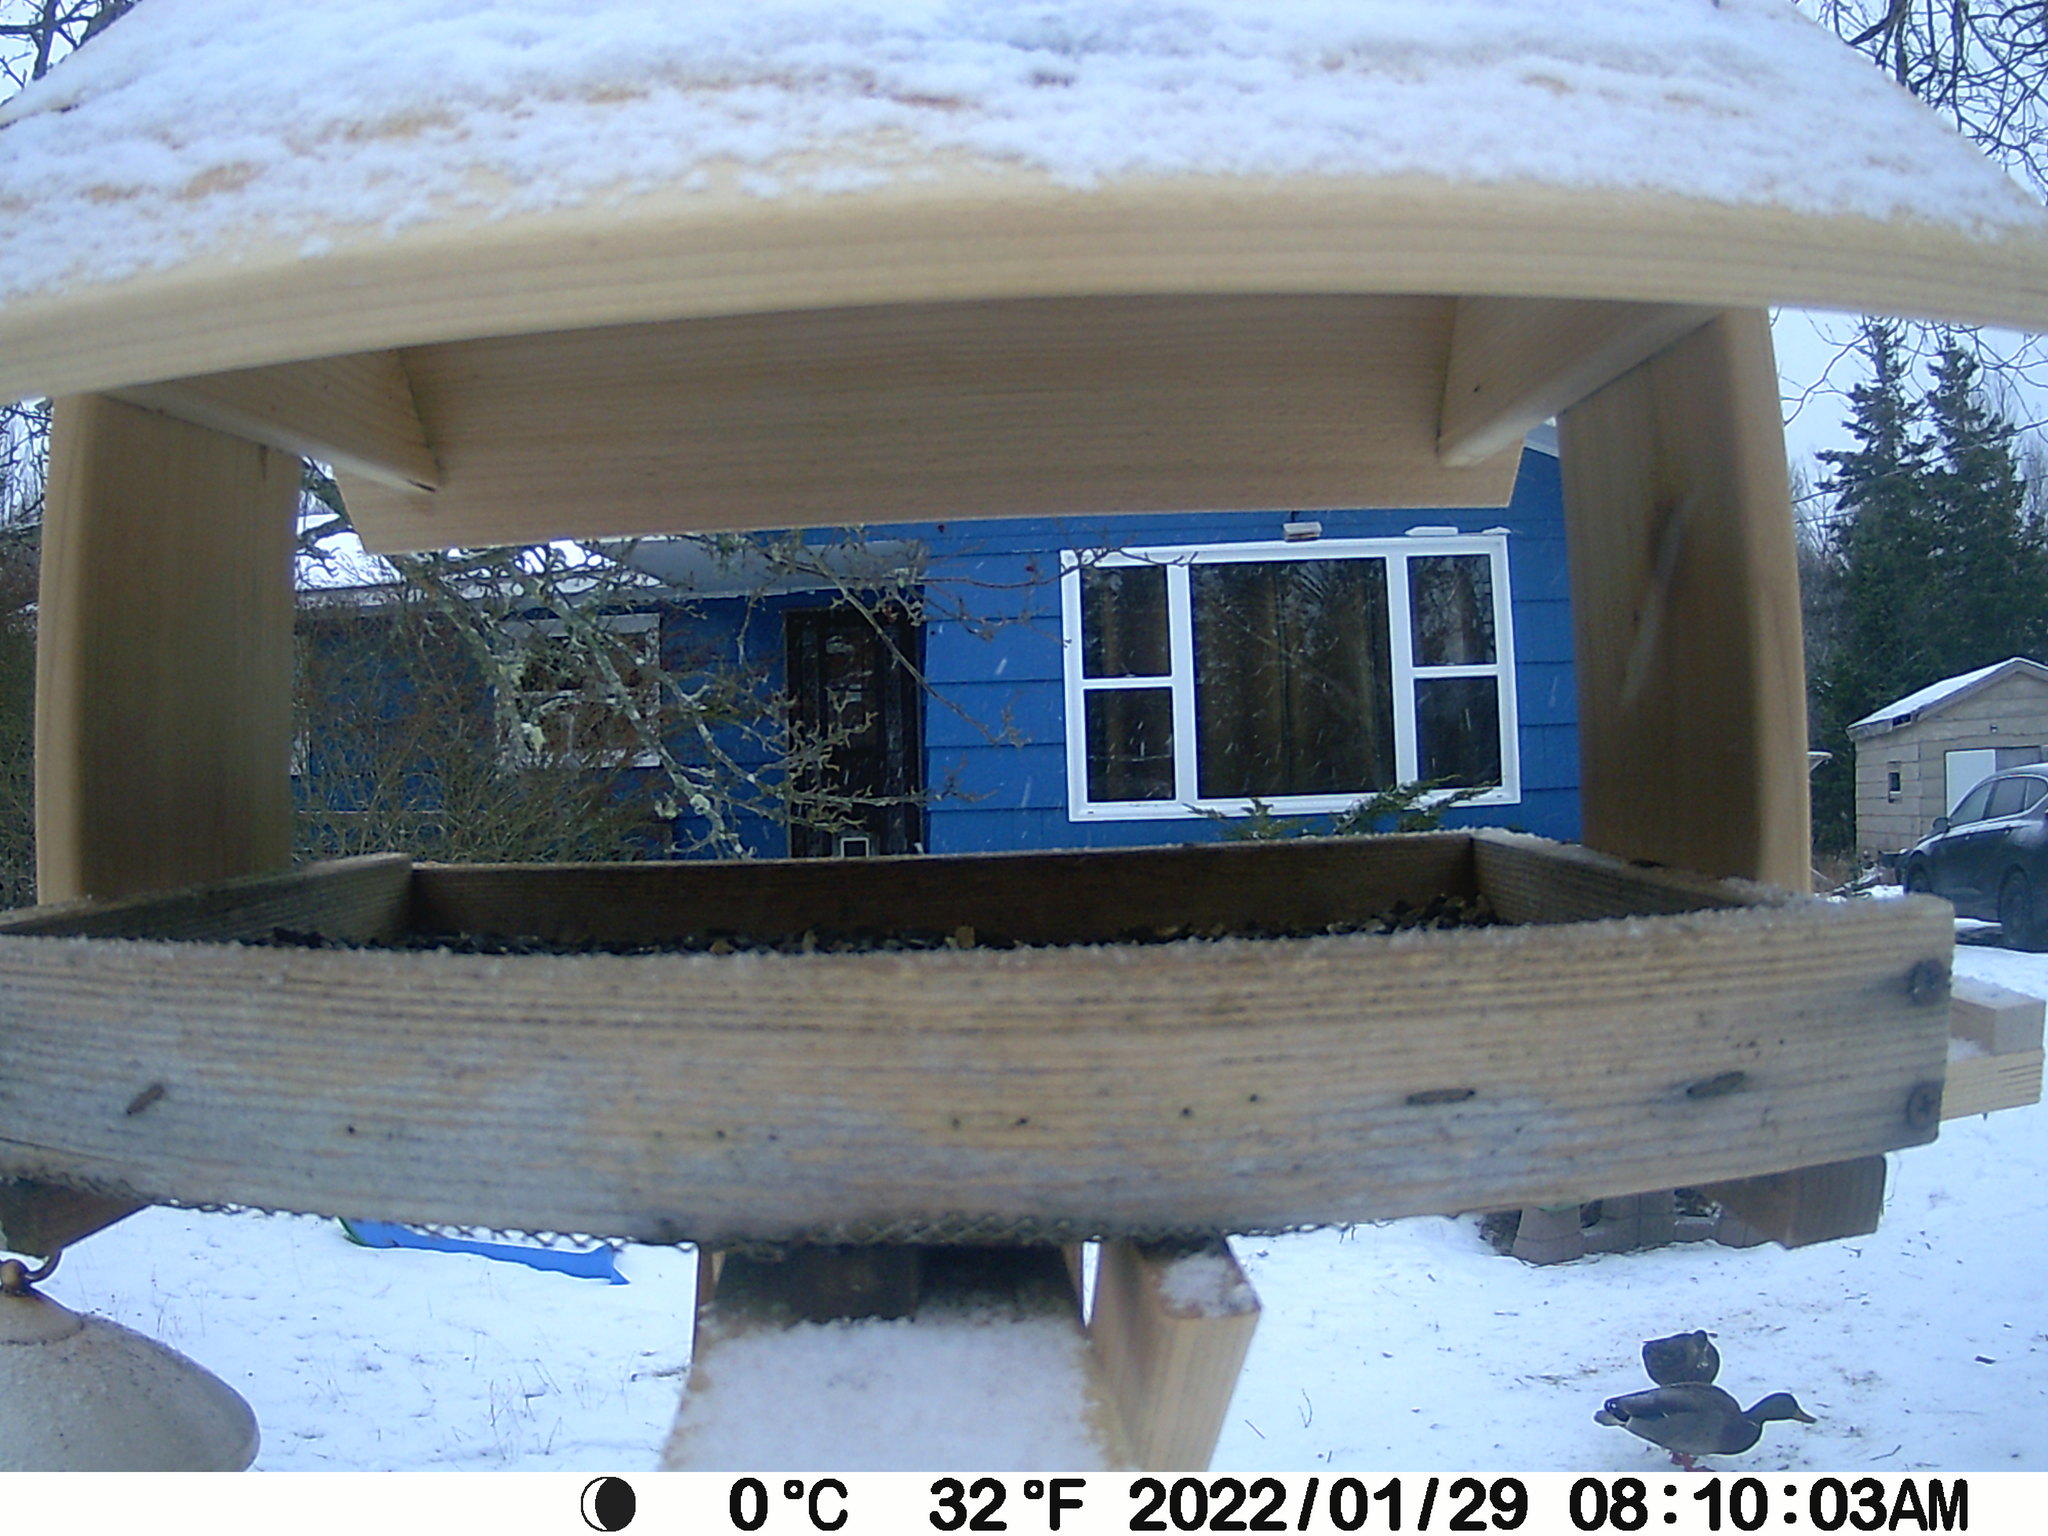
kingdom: Animalia
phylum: Chordata
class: Aves
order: Anseriformes
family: Anatidae
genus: Anas
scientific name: Anas platyrhynchos
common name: Mallard
